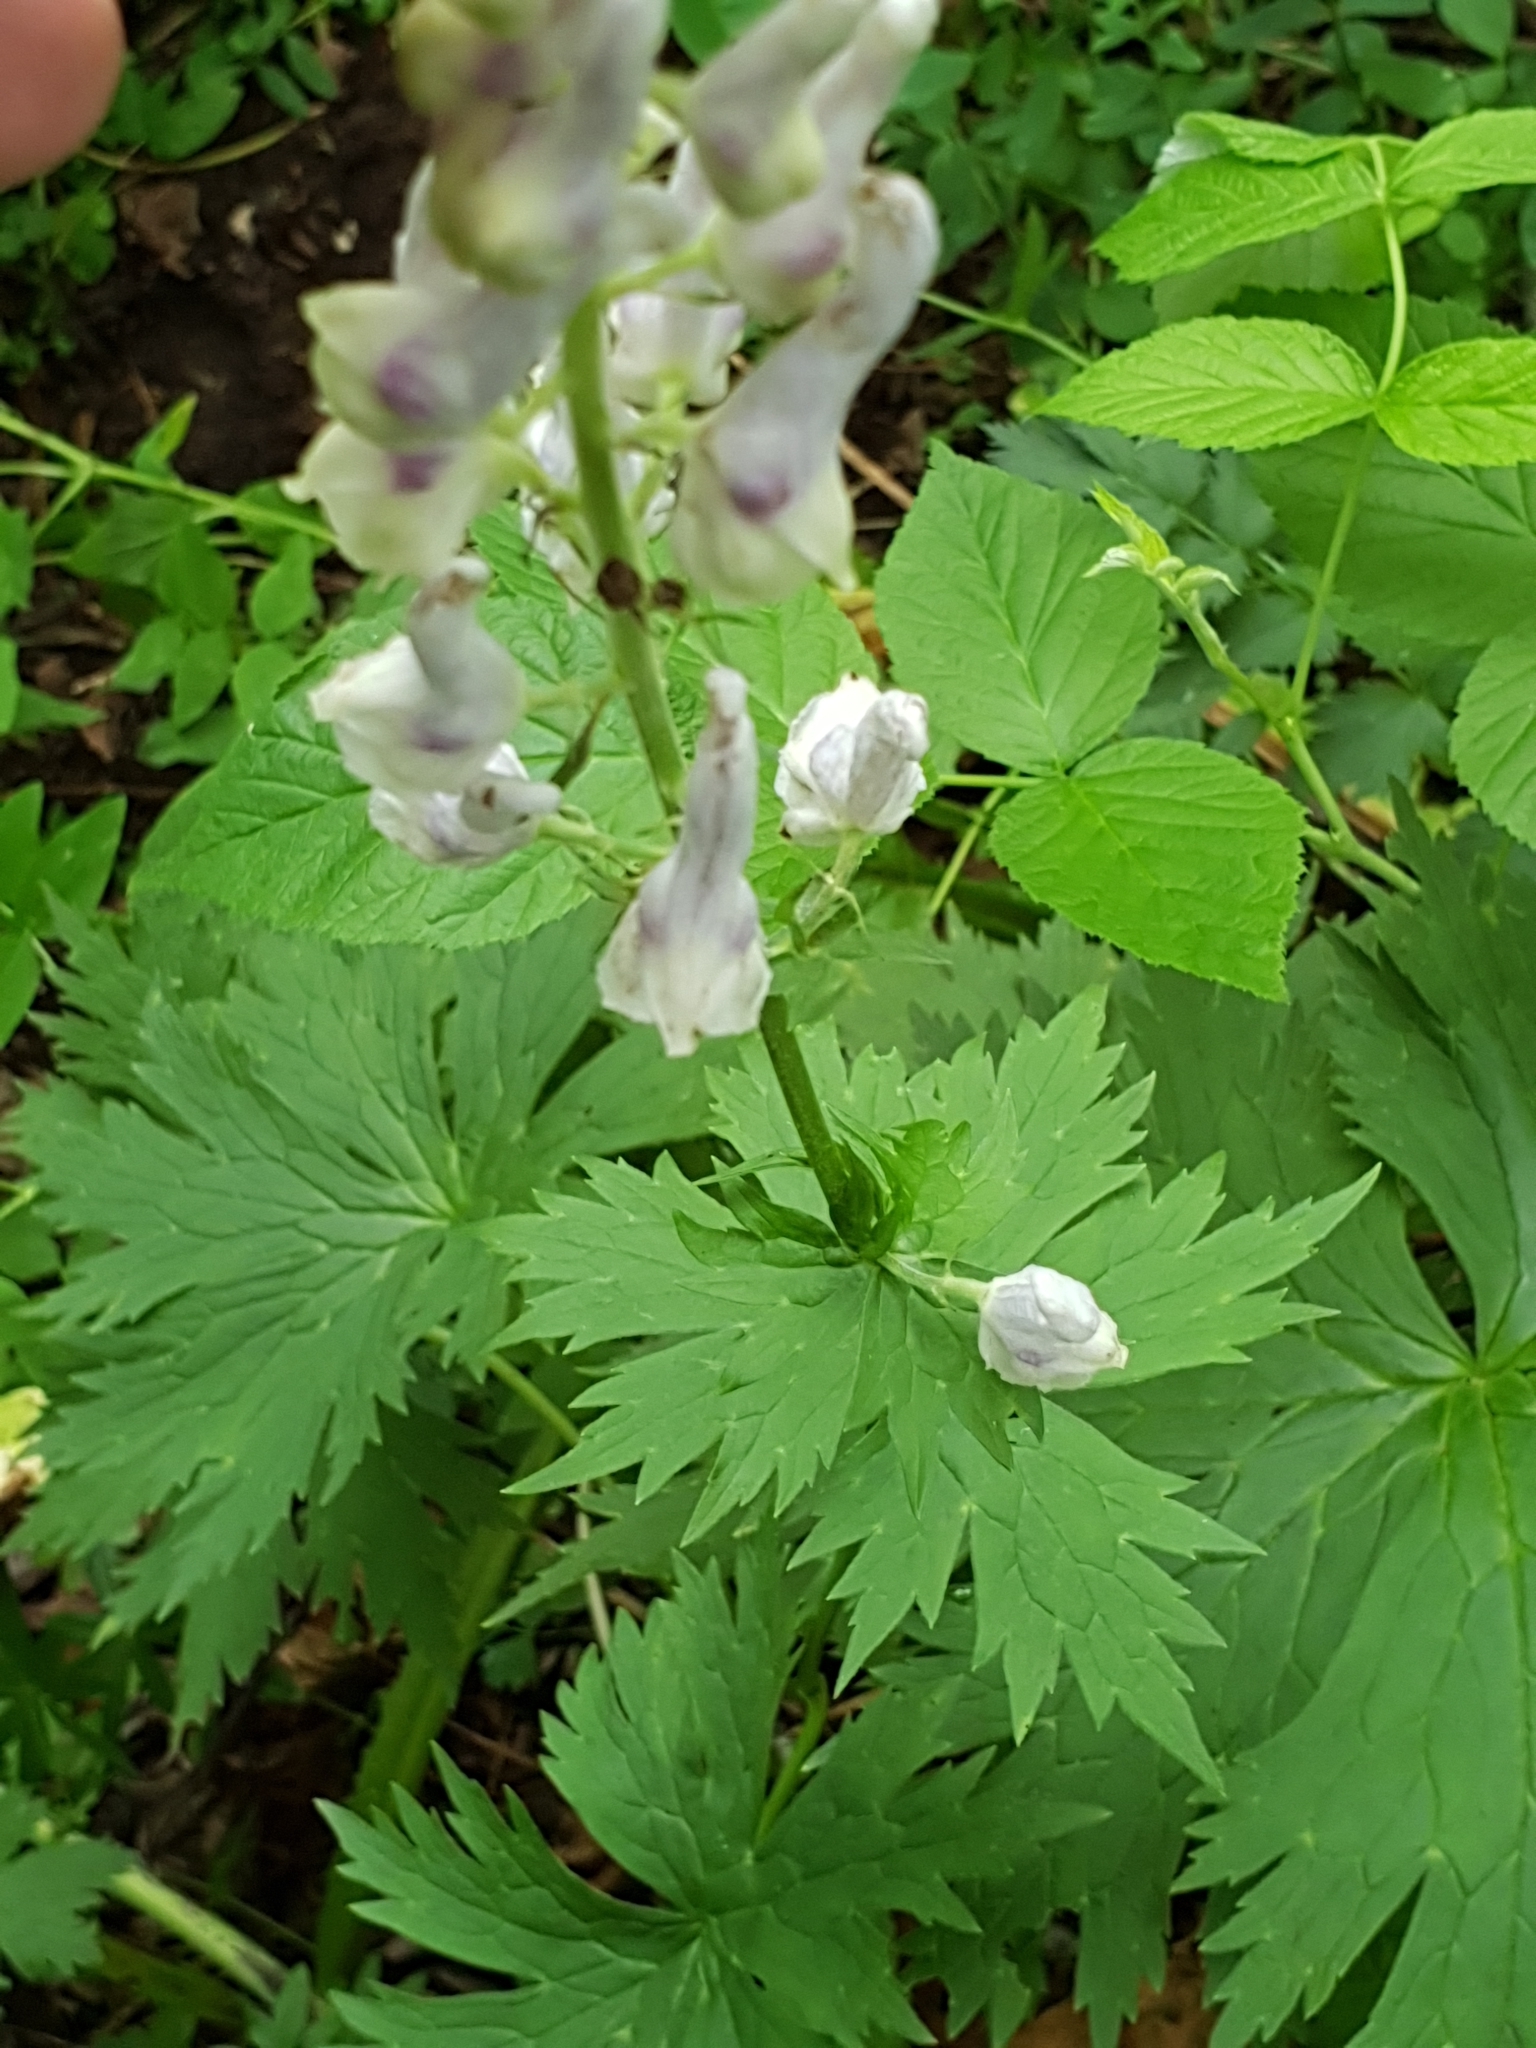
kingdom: Plantae
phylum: Tracheophyta
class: Magnoliopsida
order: Caryophyllales
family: Caryophyllaceae
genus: Silene
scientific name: Silene vulgaris
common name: Bladder campion
